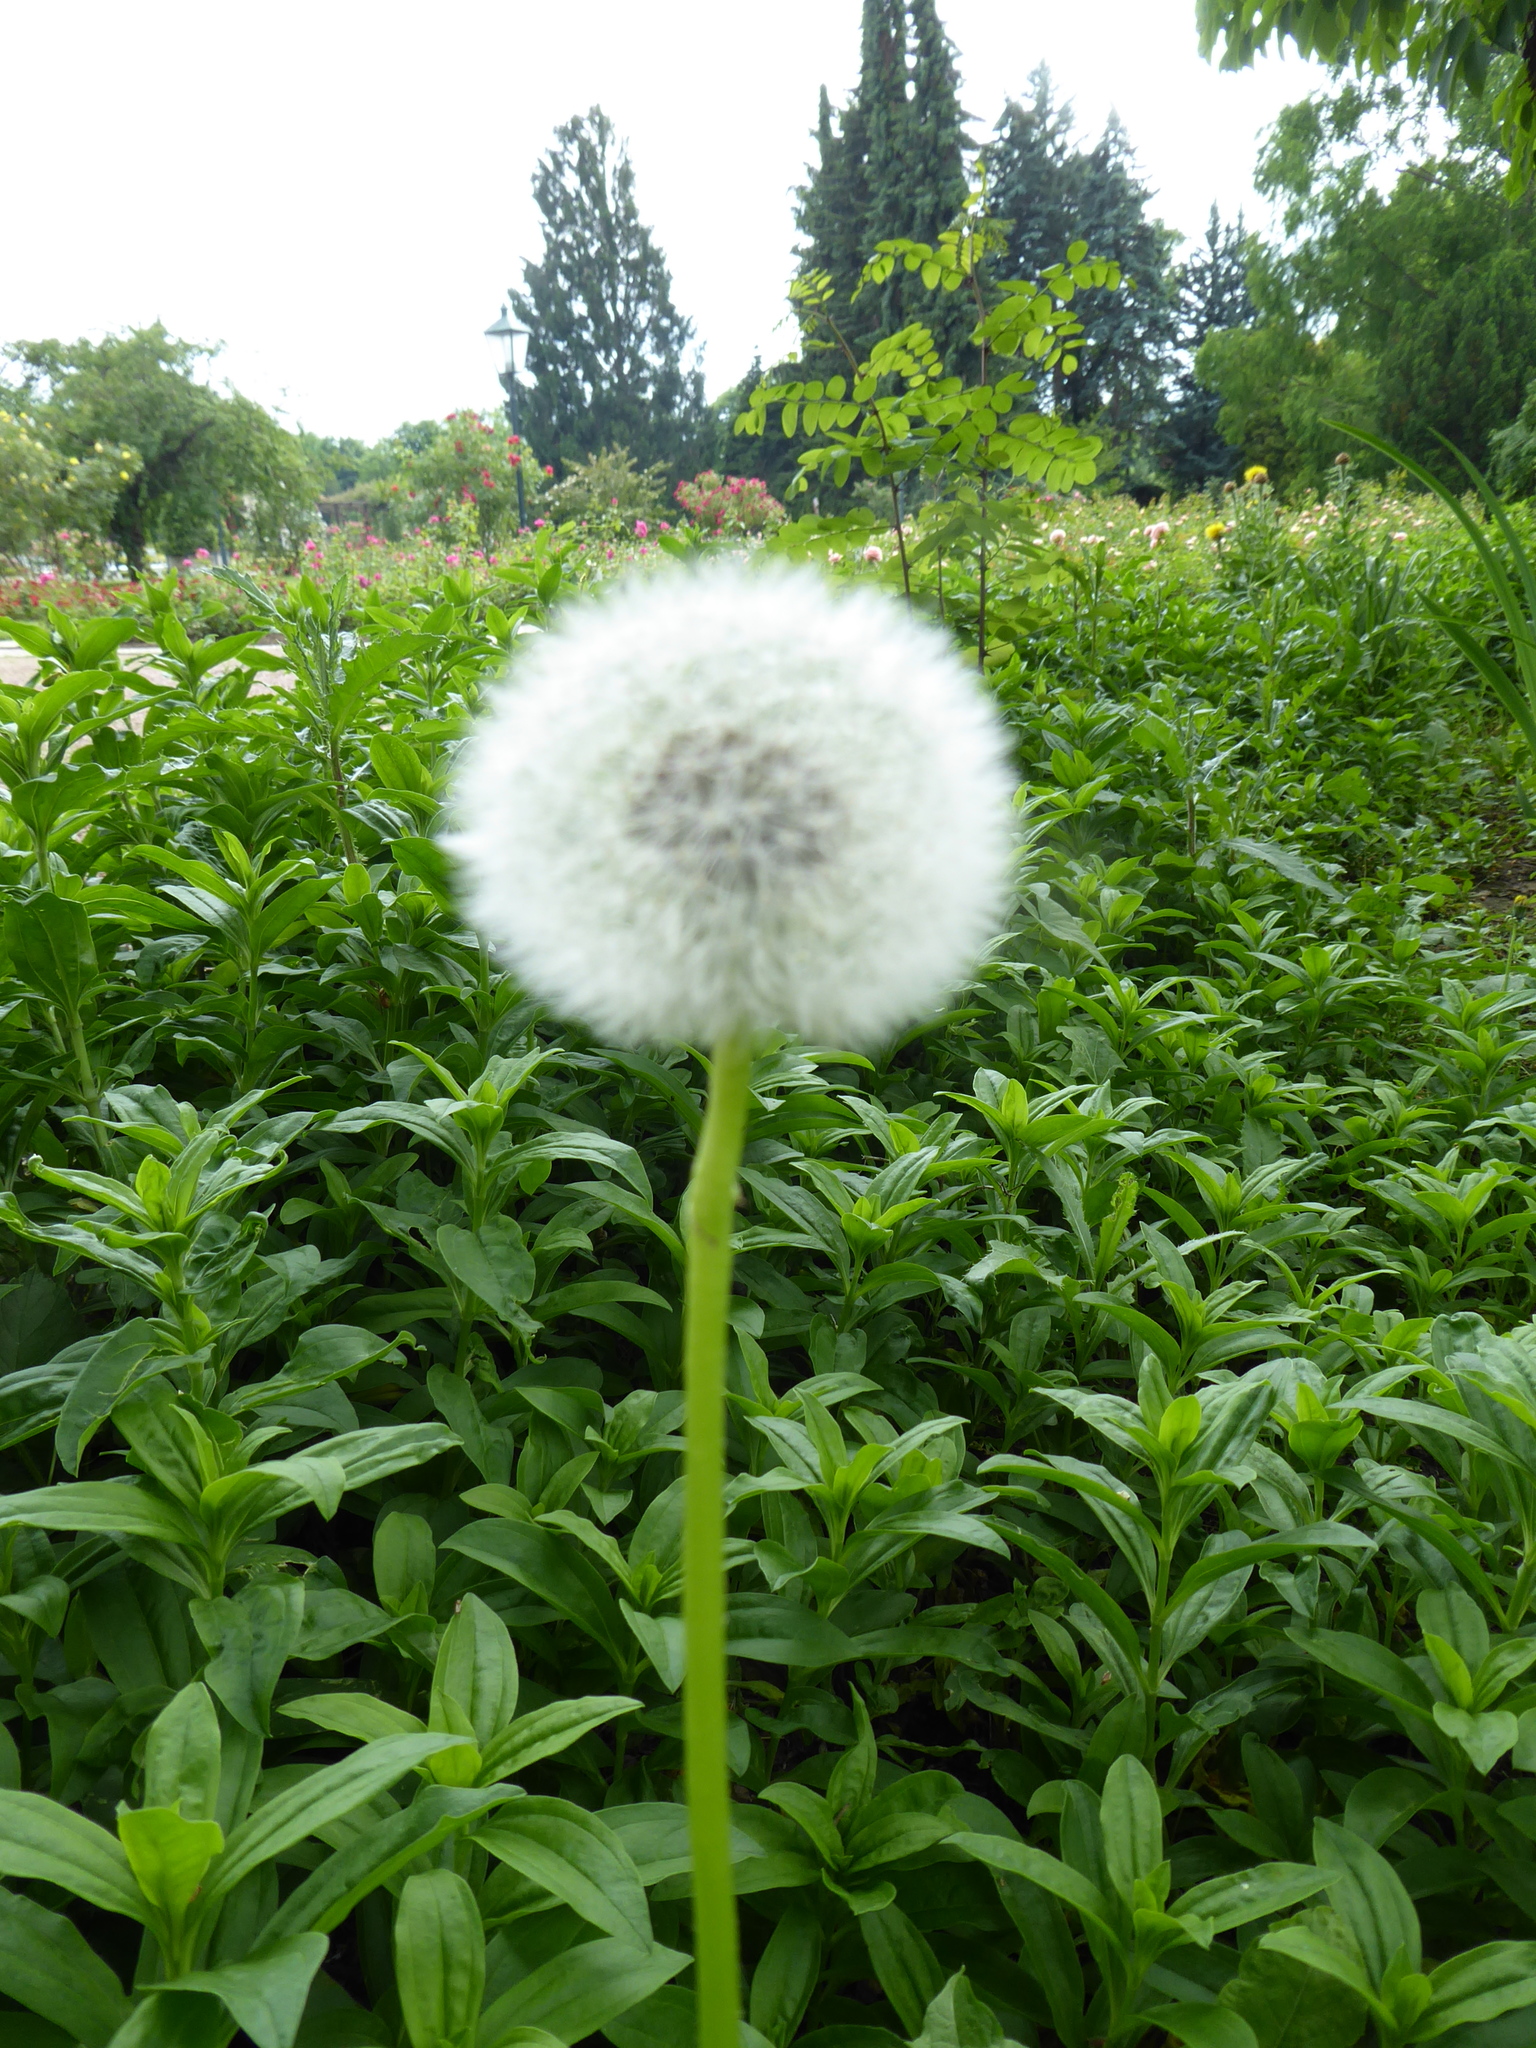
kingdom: Plantae
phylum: Tracheophyta
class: Magnoliopsida
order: Asterales
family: Asteraceae
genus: Taraxacum
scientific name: Taraxacum
